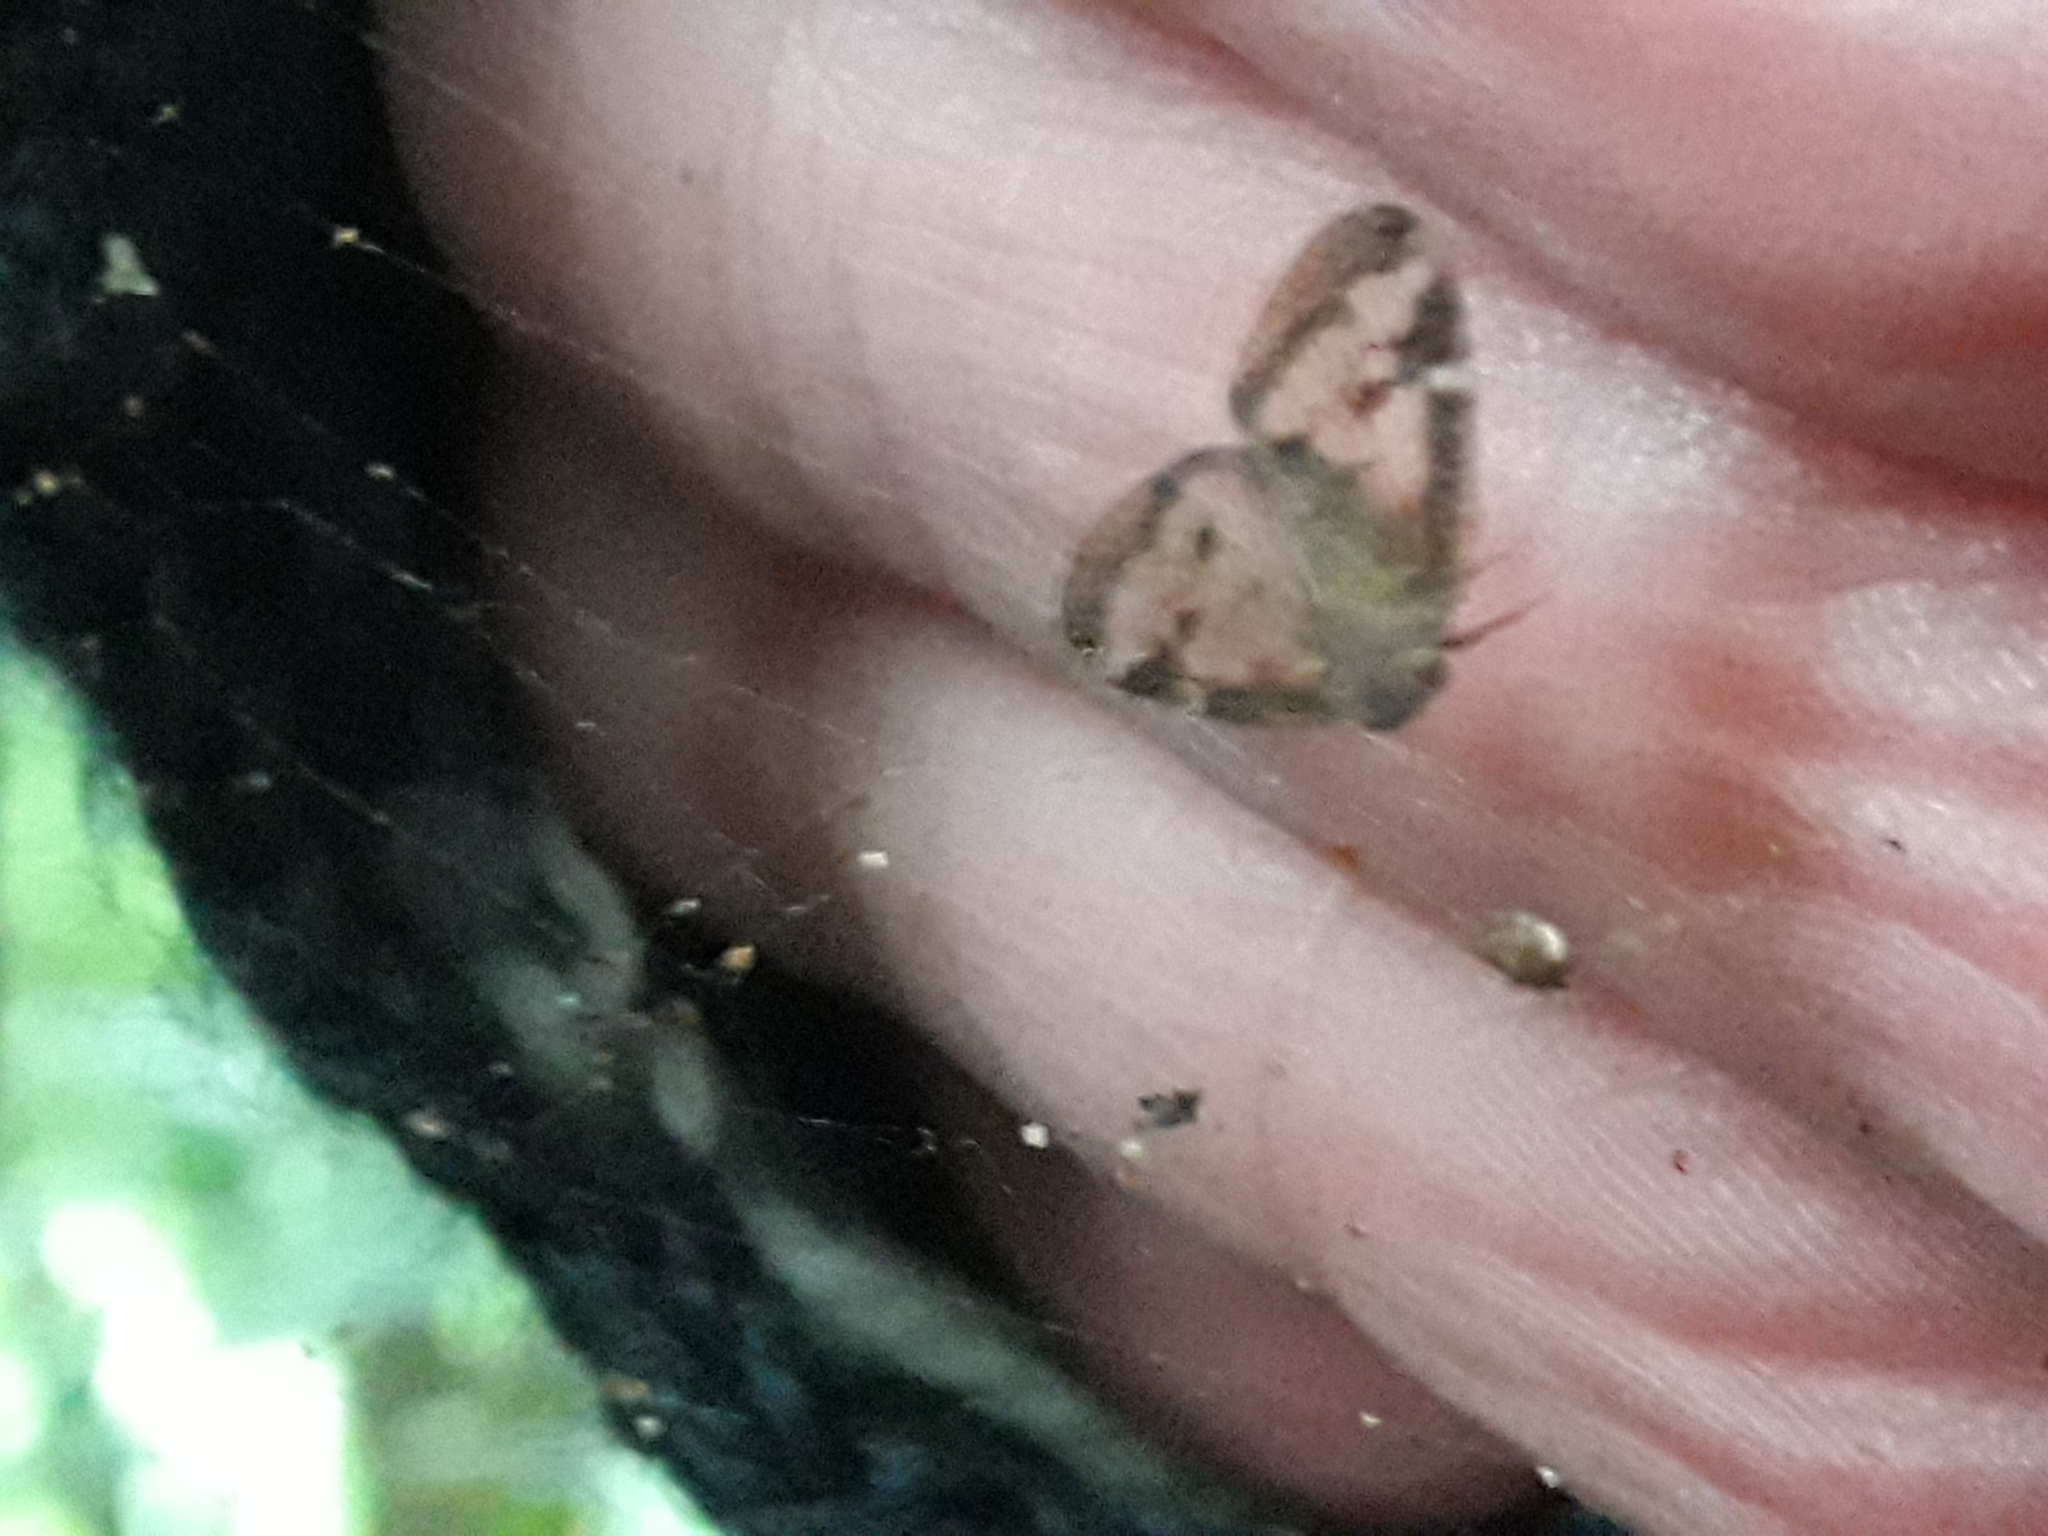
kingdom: Animalia
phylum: Arthropoda
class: Insecta
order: Hemiptera
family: Ricaniidae
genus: Scolypopa
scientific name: Scolypopa australis
